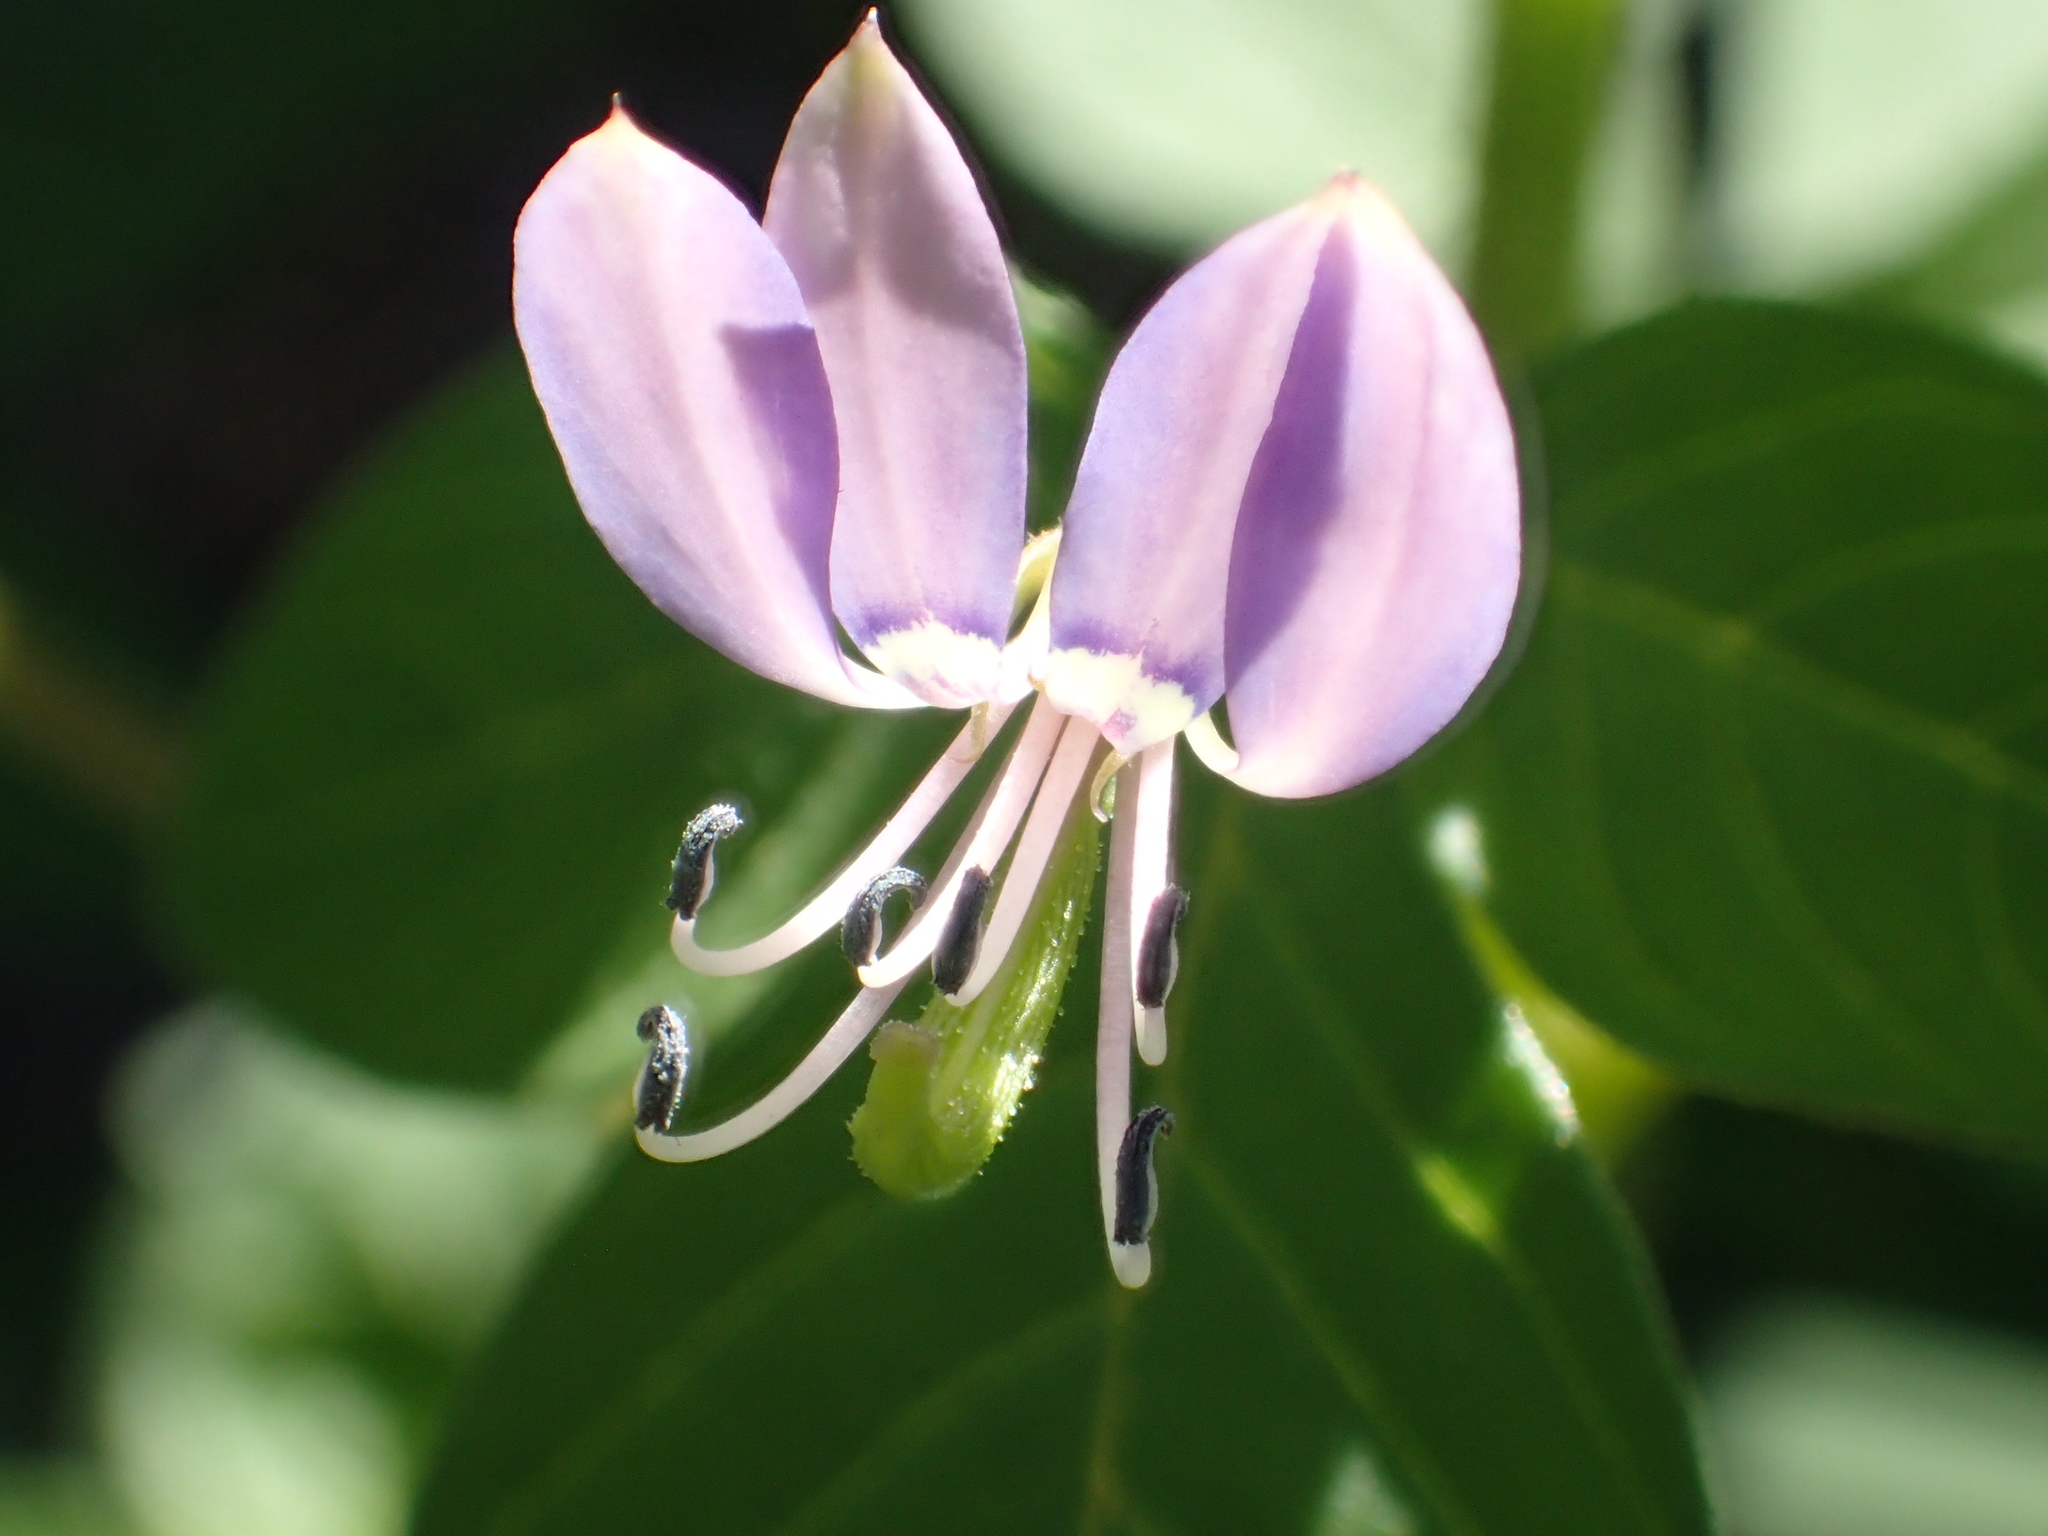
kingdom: Plantae
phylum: Tracheophyta
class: Magnoliopsida
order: Brassicales
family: Cleomaceae
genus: Sieruela
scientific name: Sieruela rutidosperma
